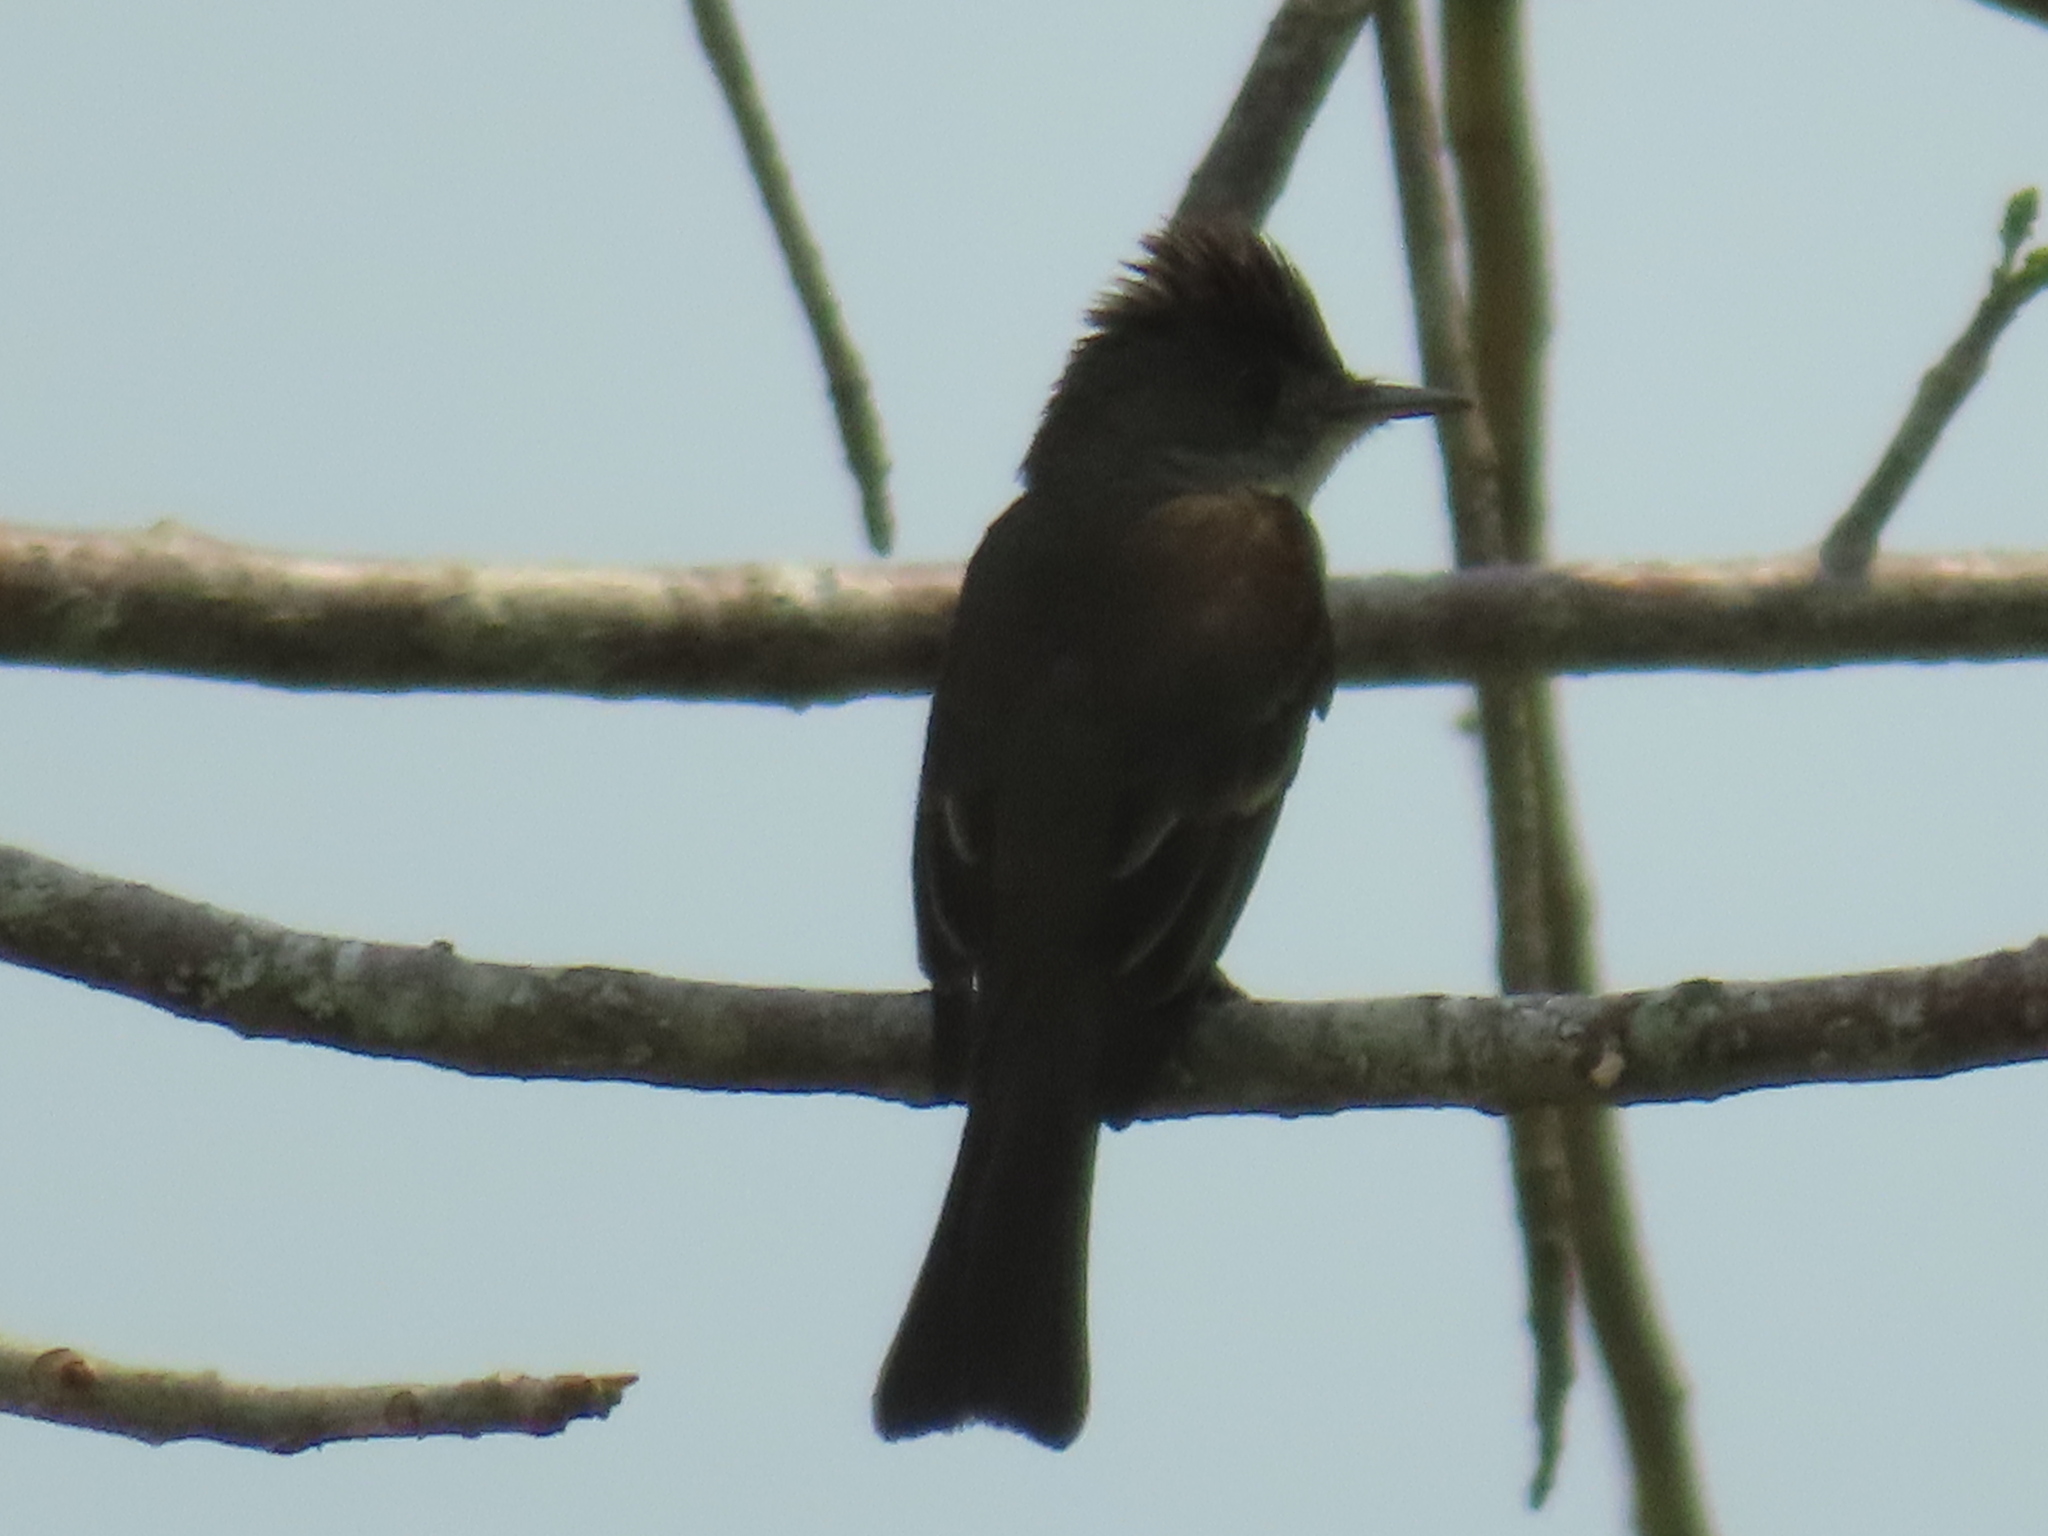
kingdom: Animalia
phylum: Chordata
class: Aves
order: Passeriformes
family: Tyrannidae
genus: Contopus
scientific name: Contopus cinereus
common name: Tropical pewee
